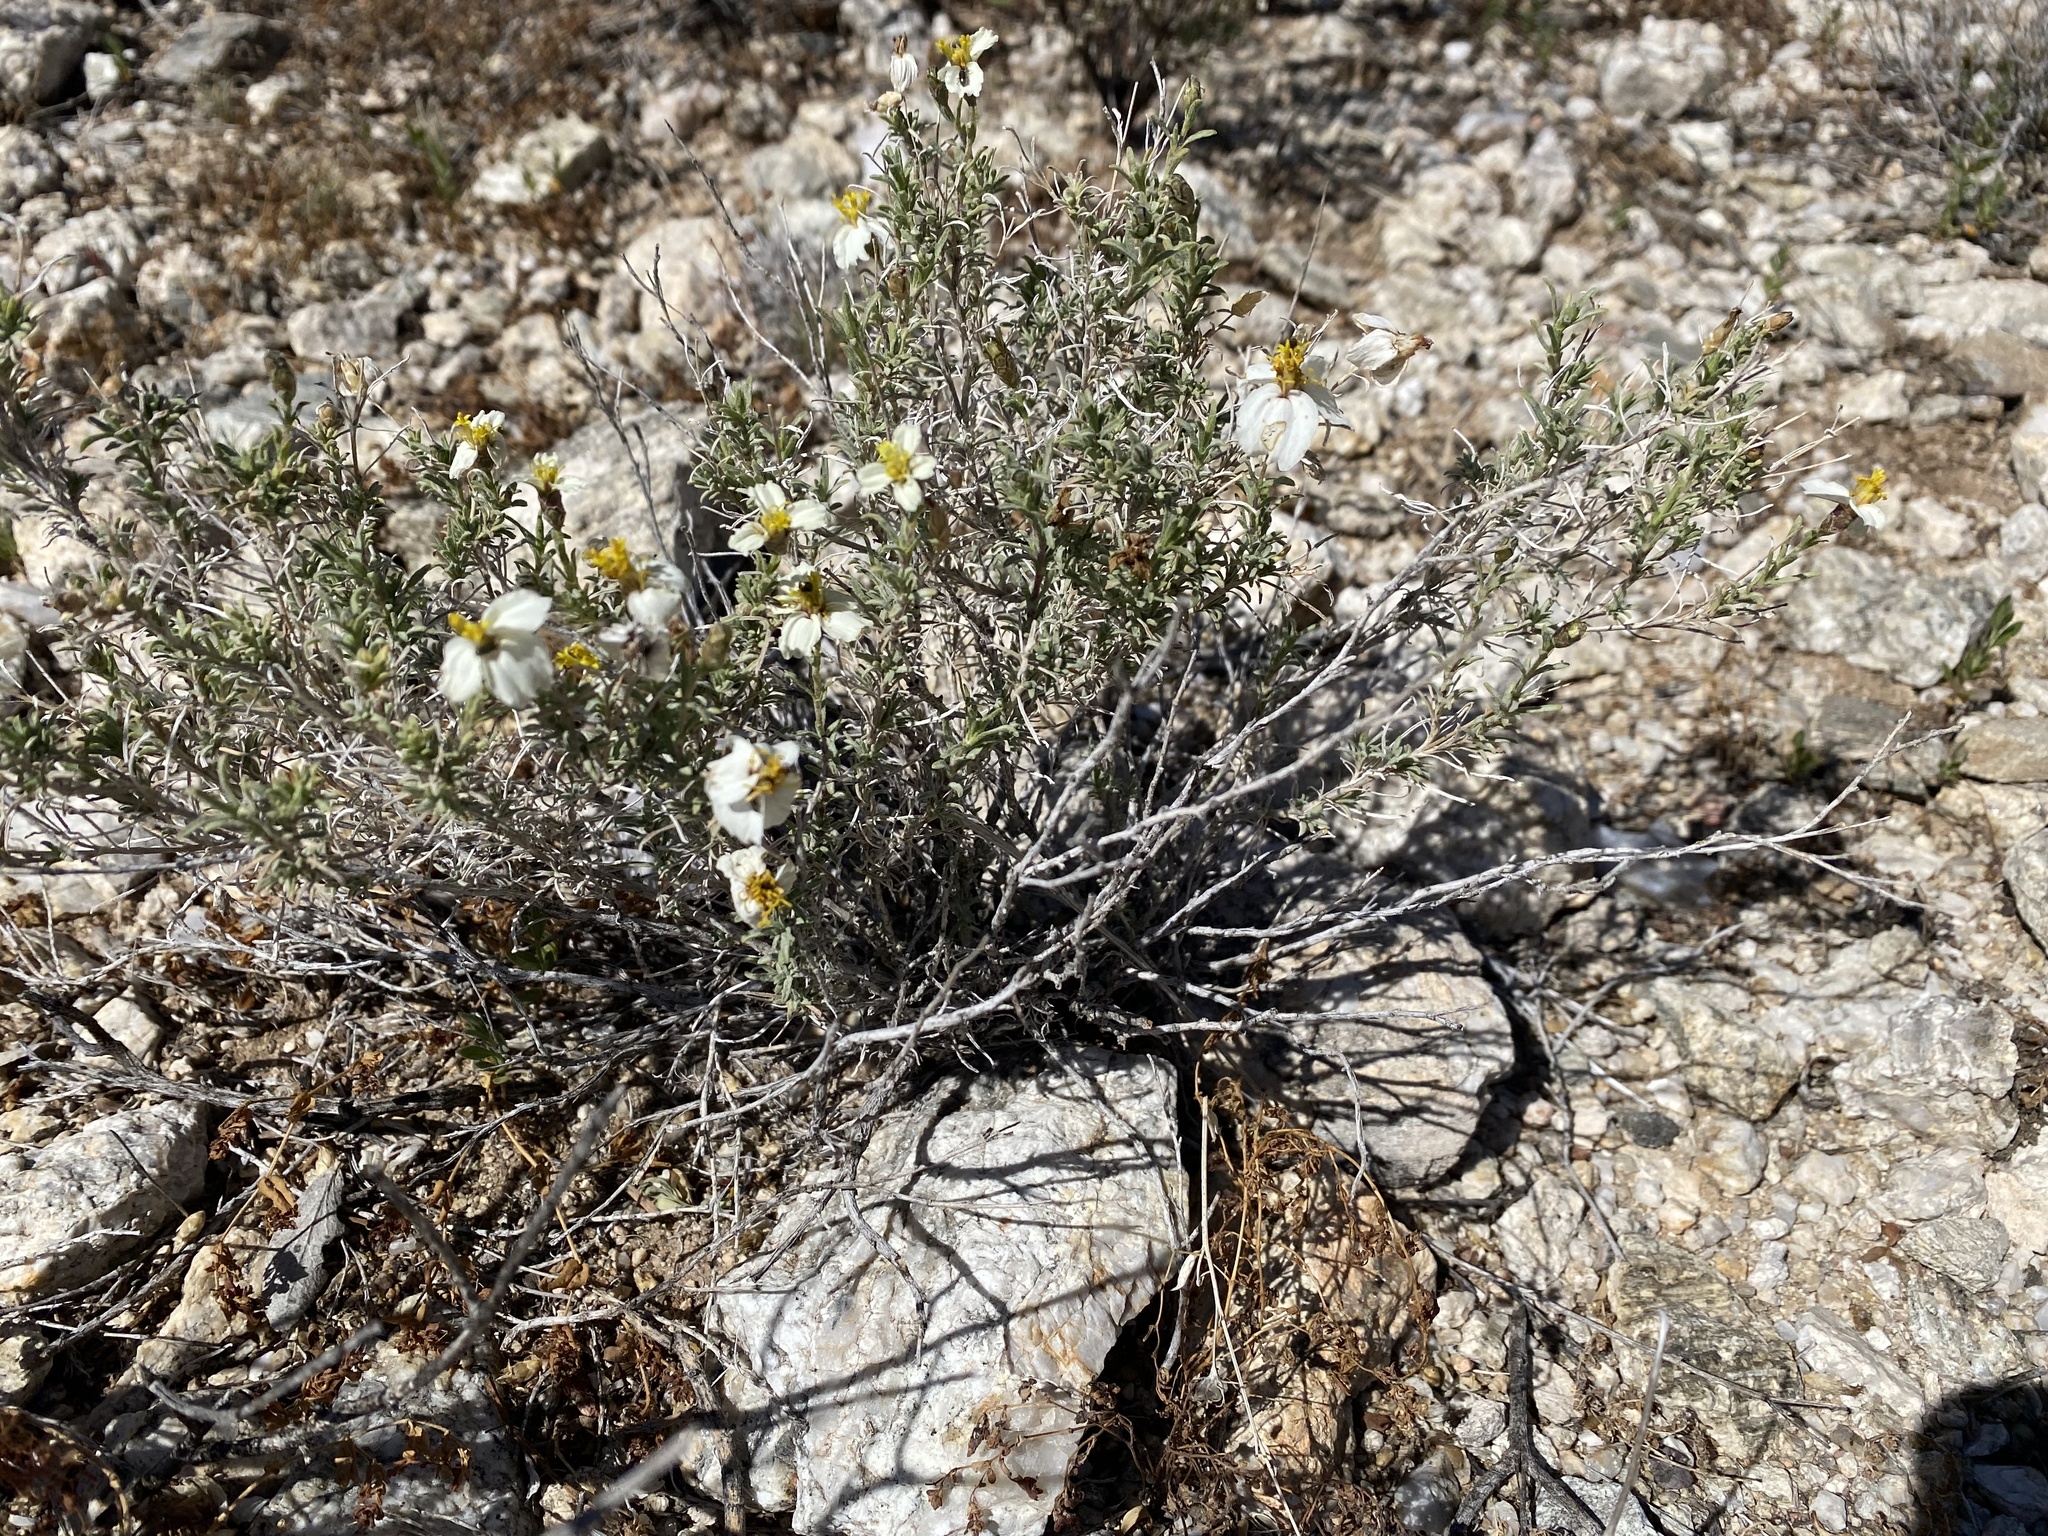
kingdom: Plantae
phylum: Tracheophyta
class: Magnoliopsida
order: Asterales
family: Asteraceae
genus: Zinnia
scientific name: Zinnia acerosa
